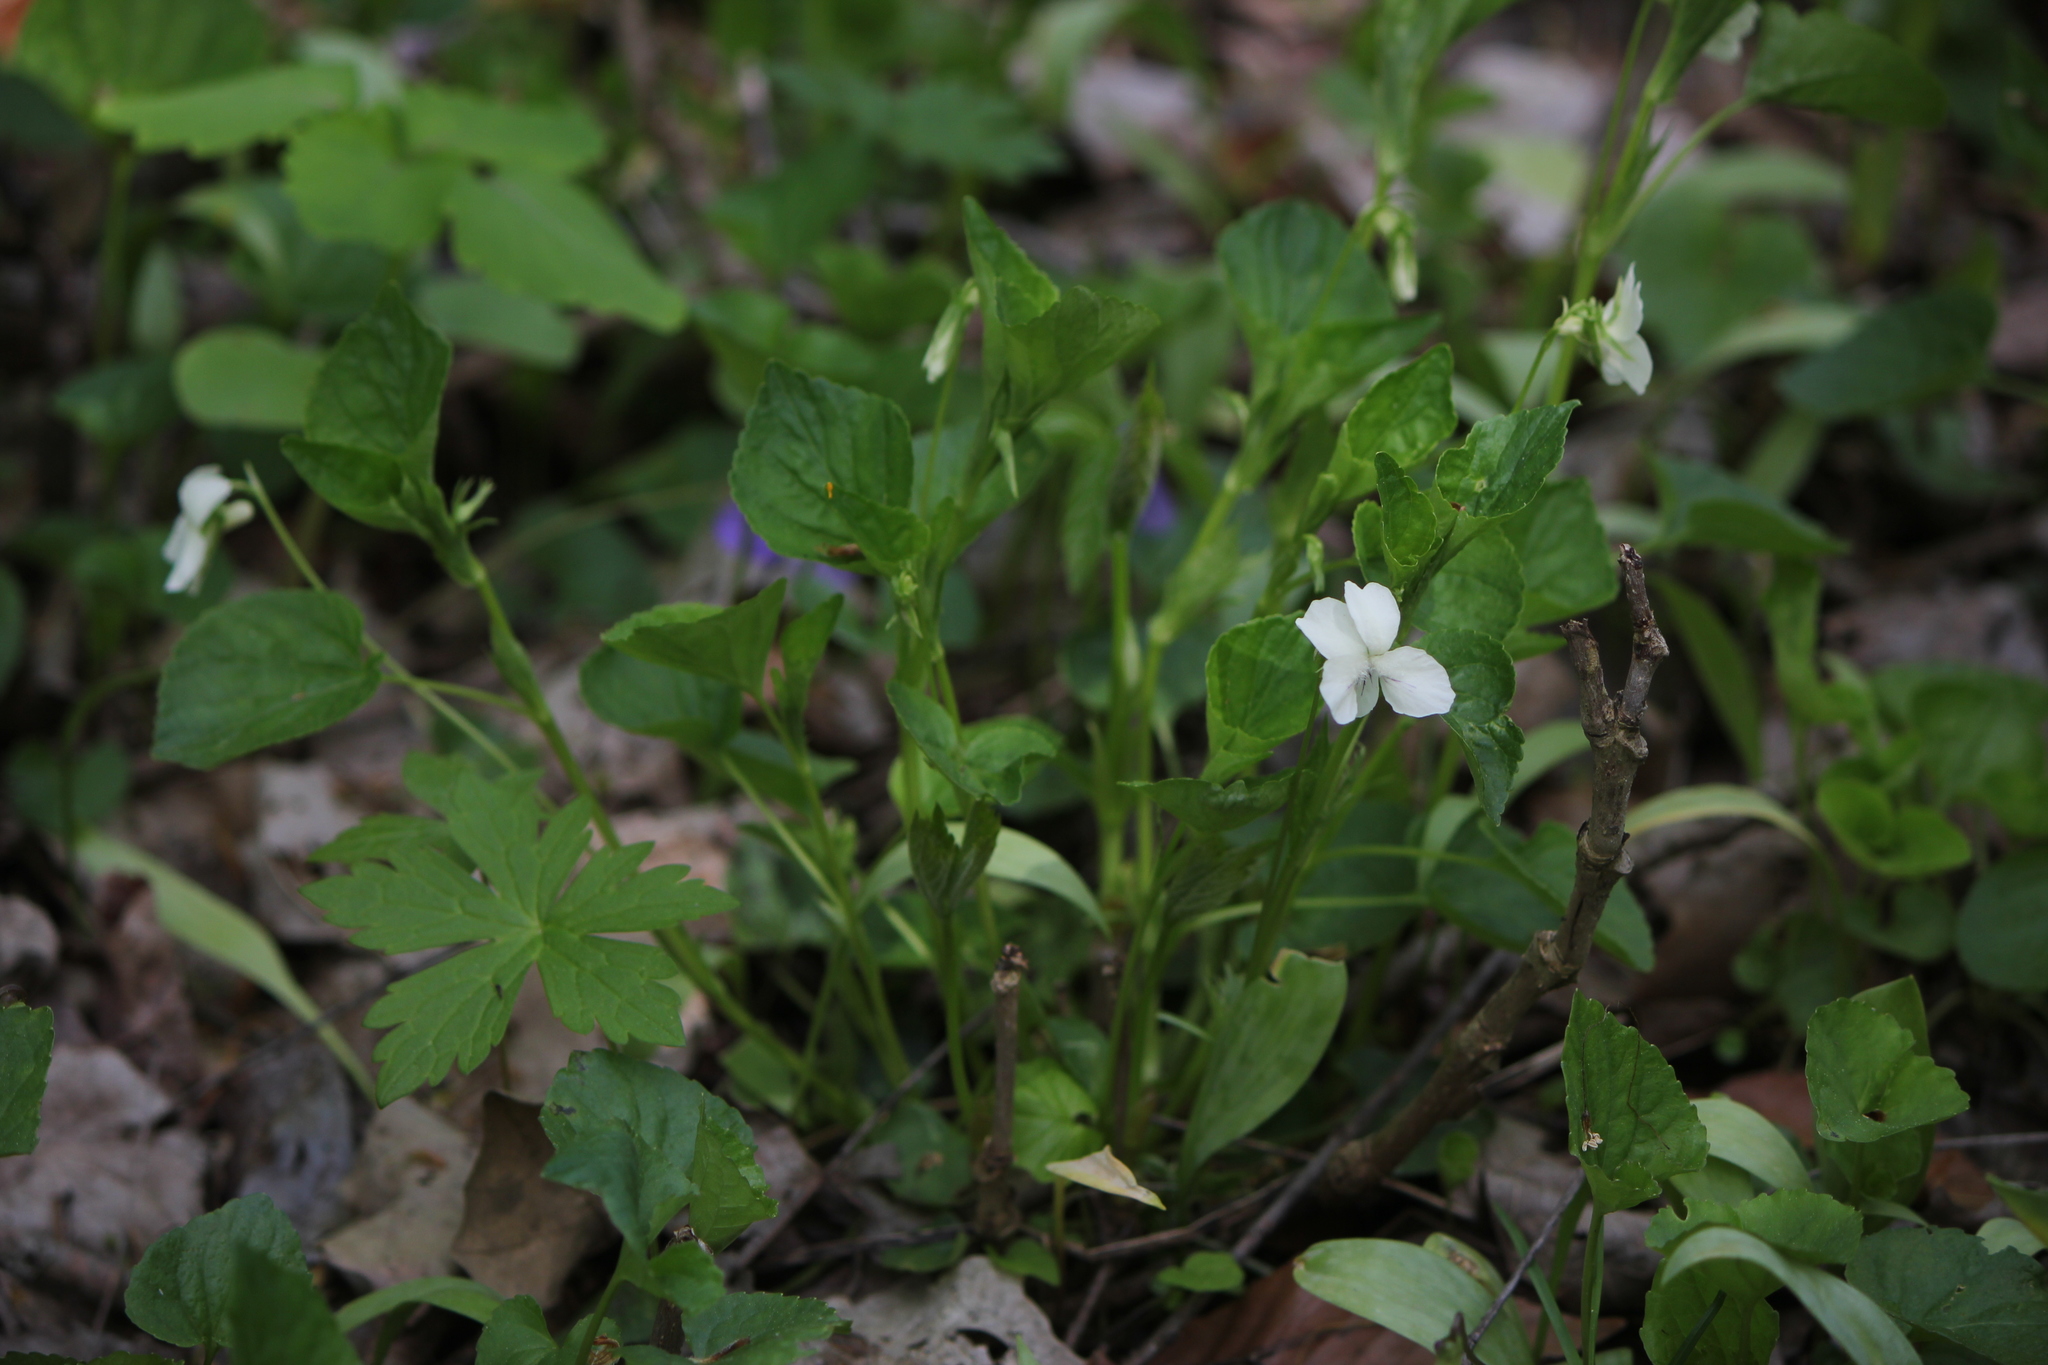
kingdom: Plantae
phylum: Tracheophyta
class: Magnoliopsida
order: Malpighiales
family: Violaceae
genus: Viola
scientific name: Viola striata
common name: Cream violet
